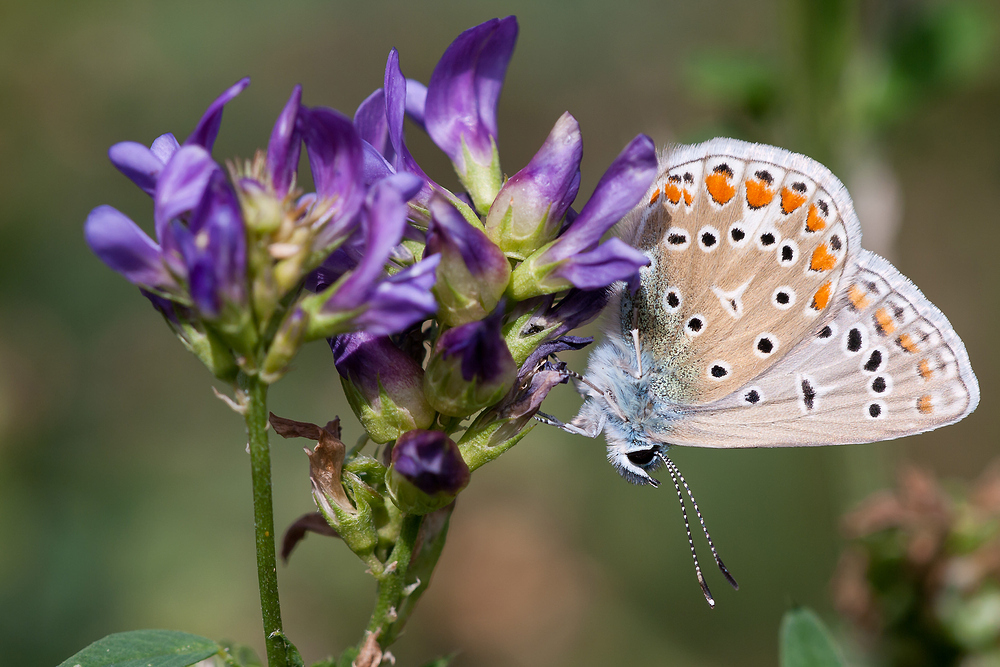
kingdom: Animalia
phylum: Arthropoda
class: Insecta
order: Lepidoptera
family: Lycaenidae
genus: Polyommatus
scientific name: Polyommatus icarus
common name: Common blue
